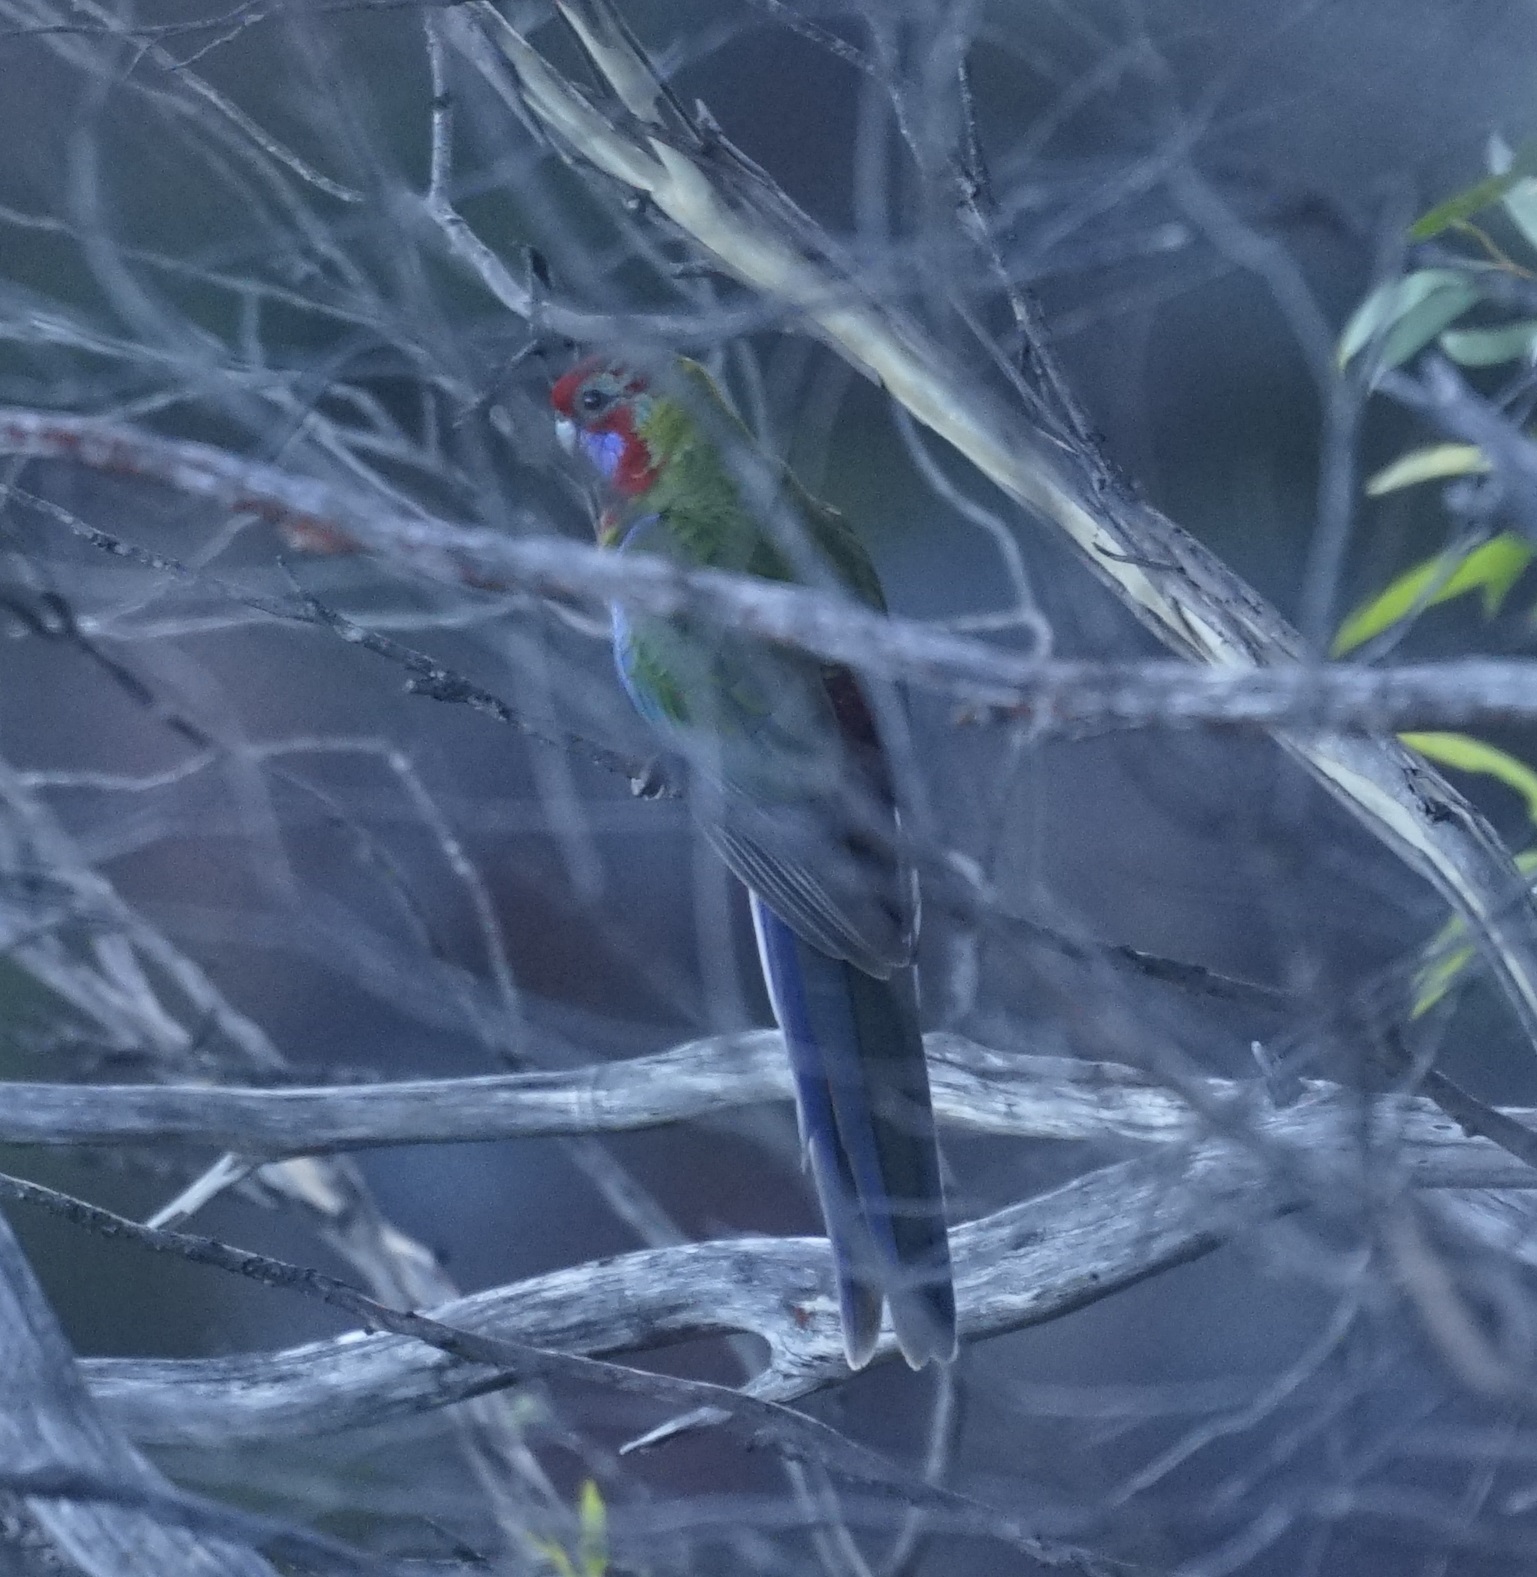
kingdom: Animalia
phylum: Chordata
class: Aves
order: Psittaciformes
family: Psittacidae
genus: Platycercus
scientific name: Platycercus elegans
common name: Crimson rosella
